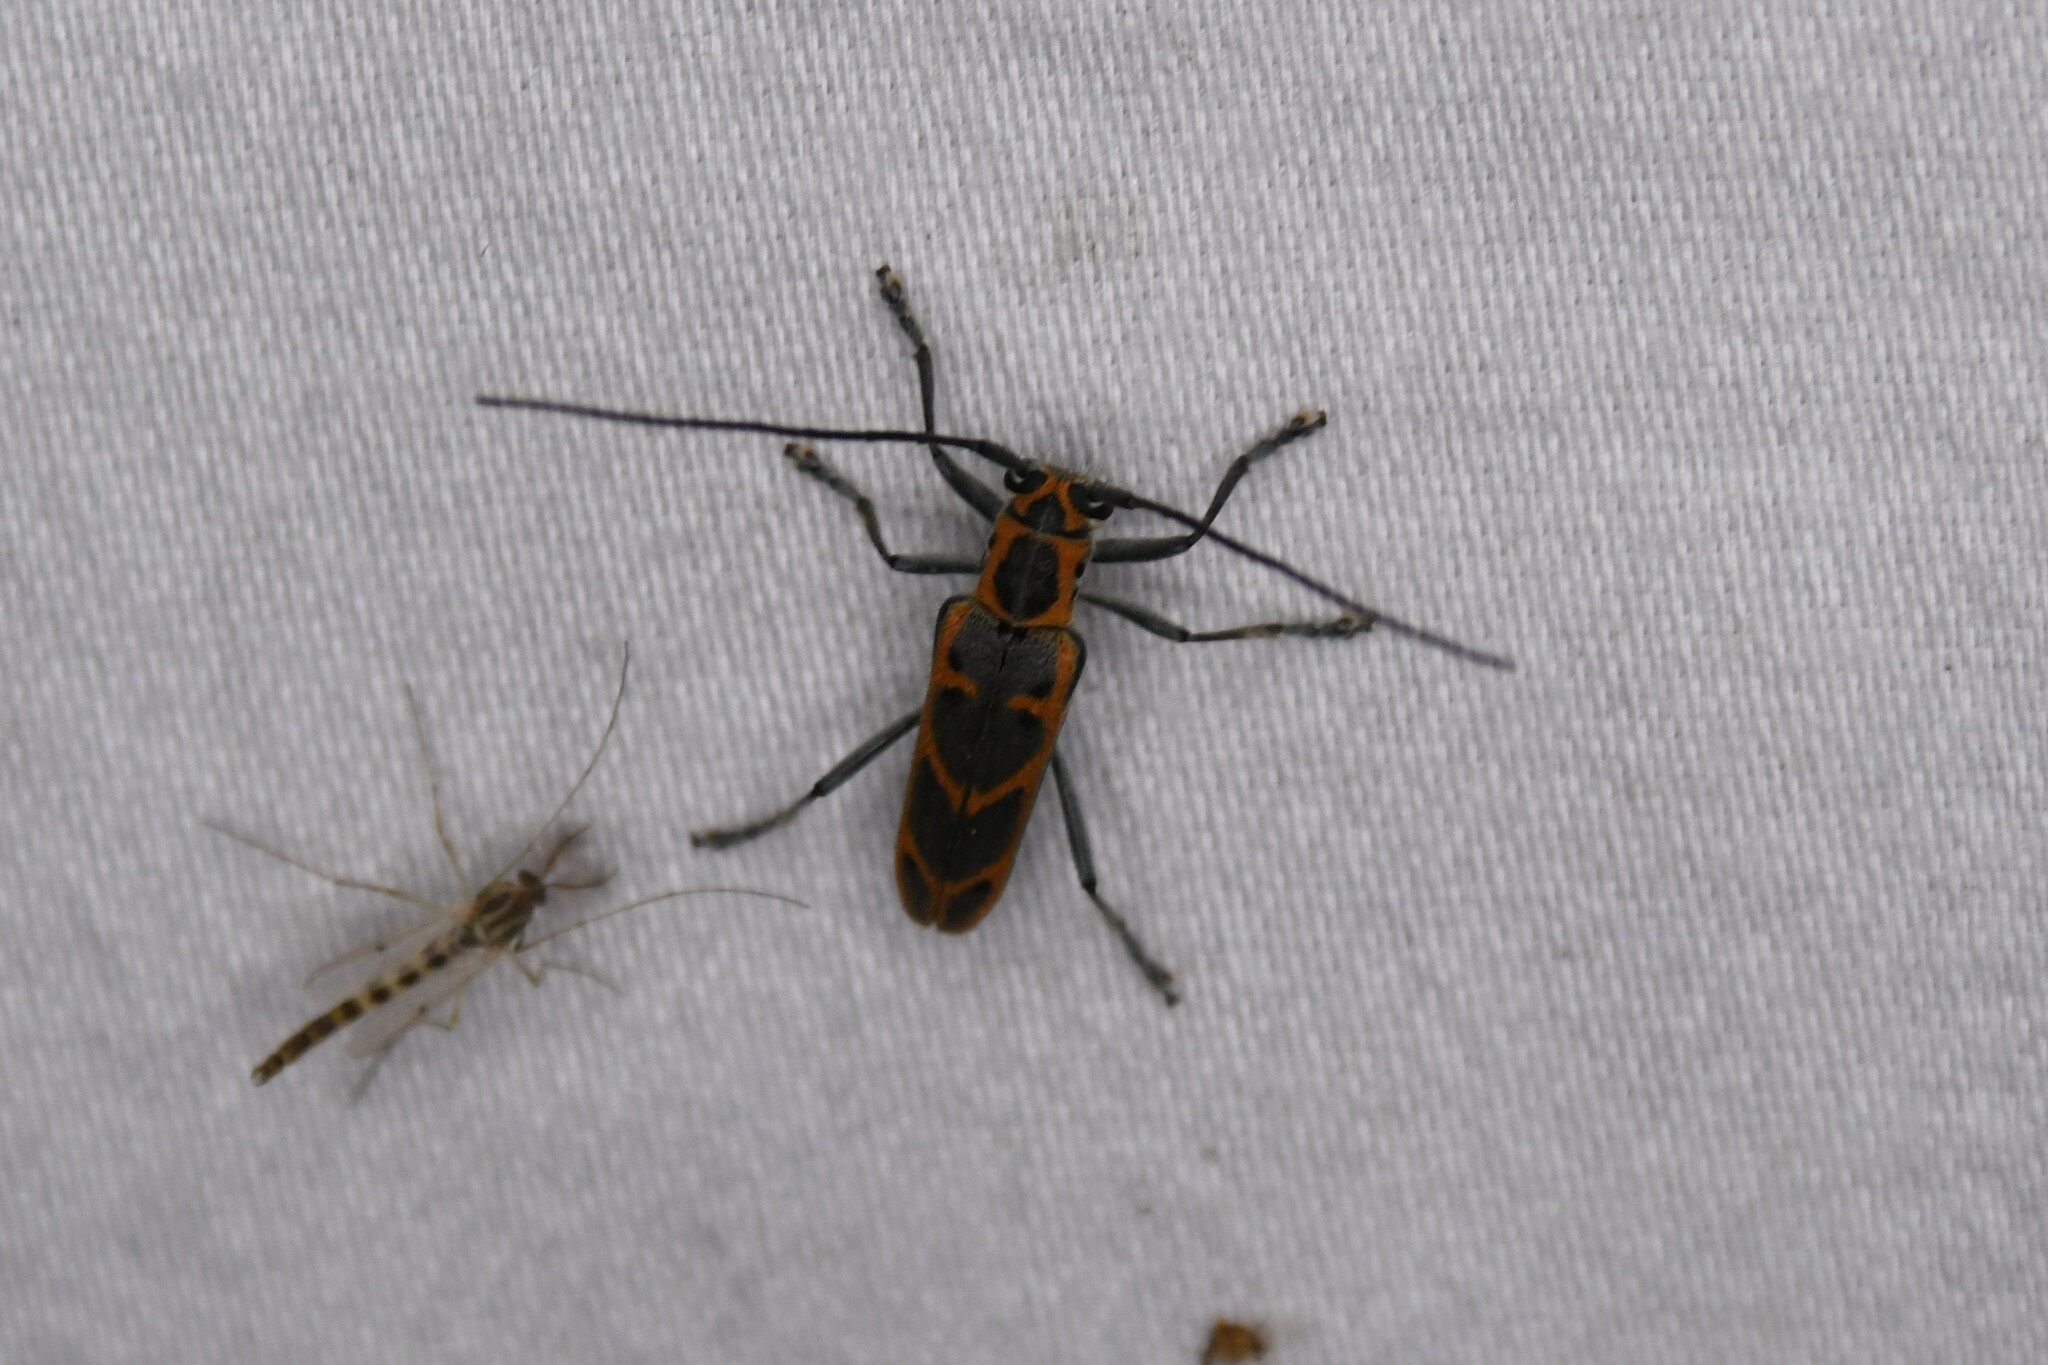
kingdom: Animalia
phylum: Arthropoda
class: Insecta
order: Coleoptera
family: Cerambycidae
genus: Saperda
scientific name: Saperda tridentata
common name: Elm borer
